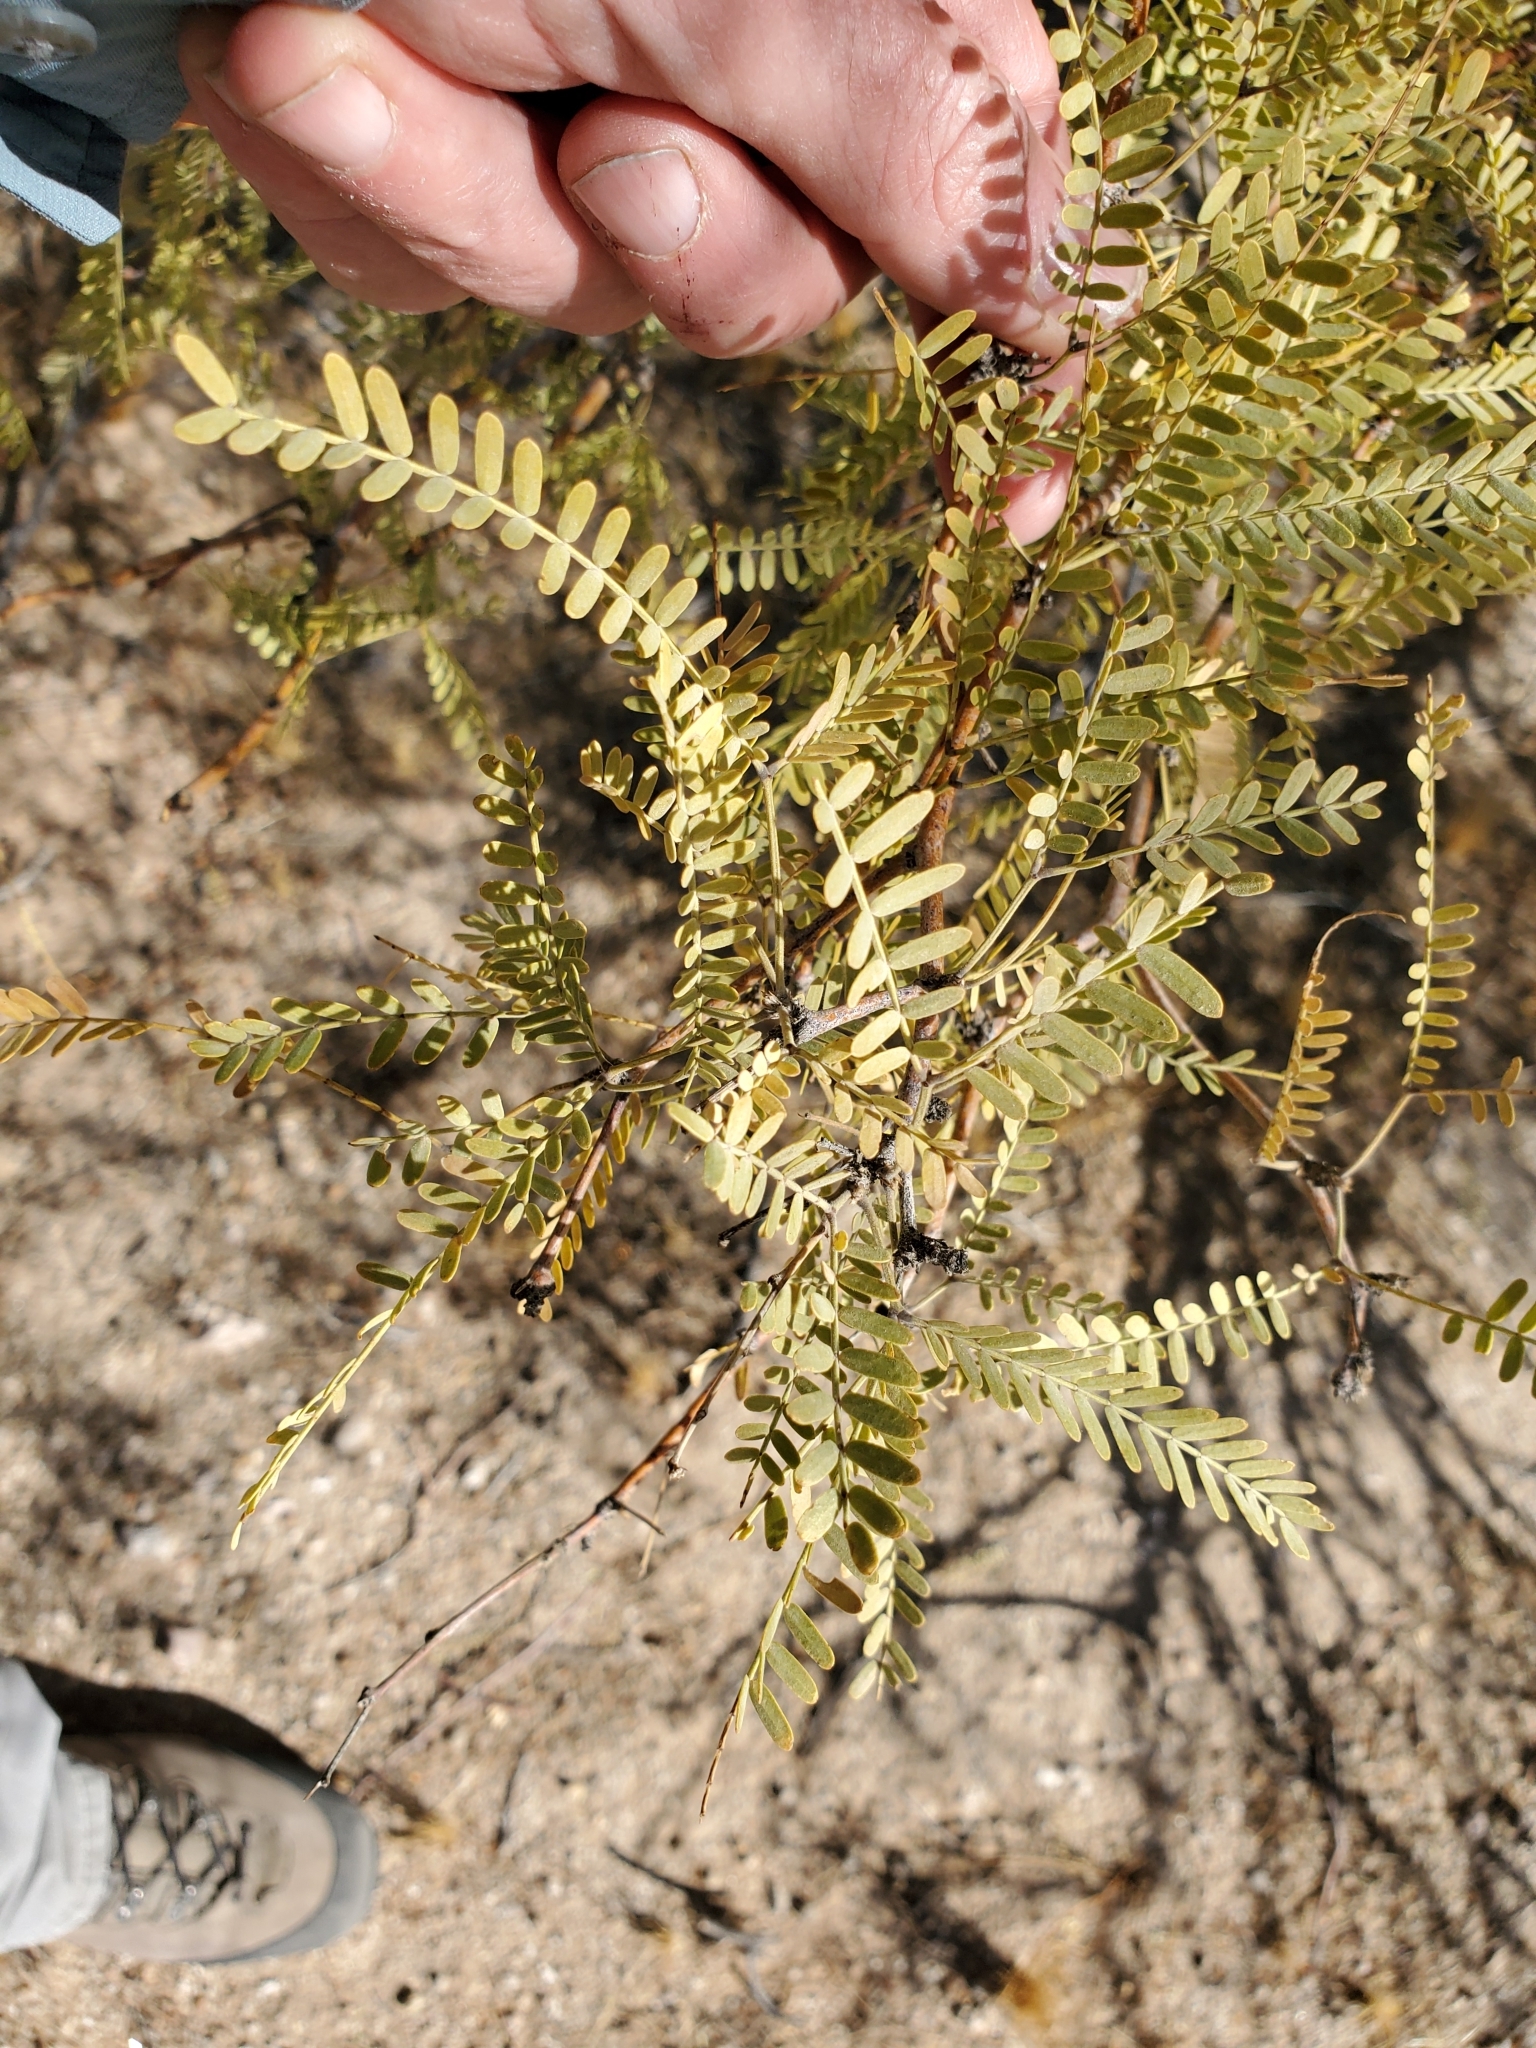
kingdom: Plantae
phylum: Tracheophyta
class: Magnoliopsida
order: Fabales
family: Fabaceae
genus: Prosopis
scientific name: Prosopis pubescens
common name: Screw-bean
